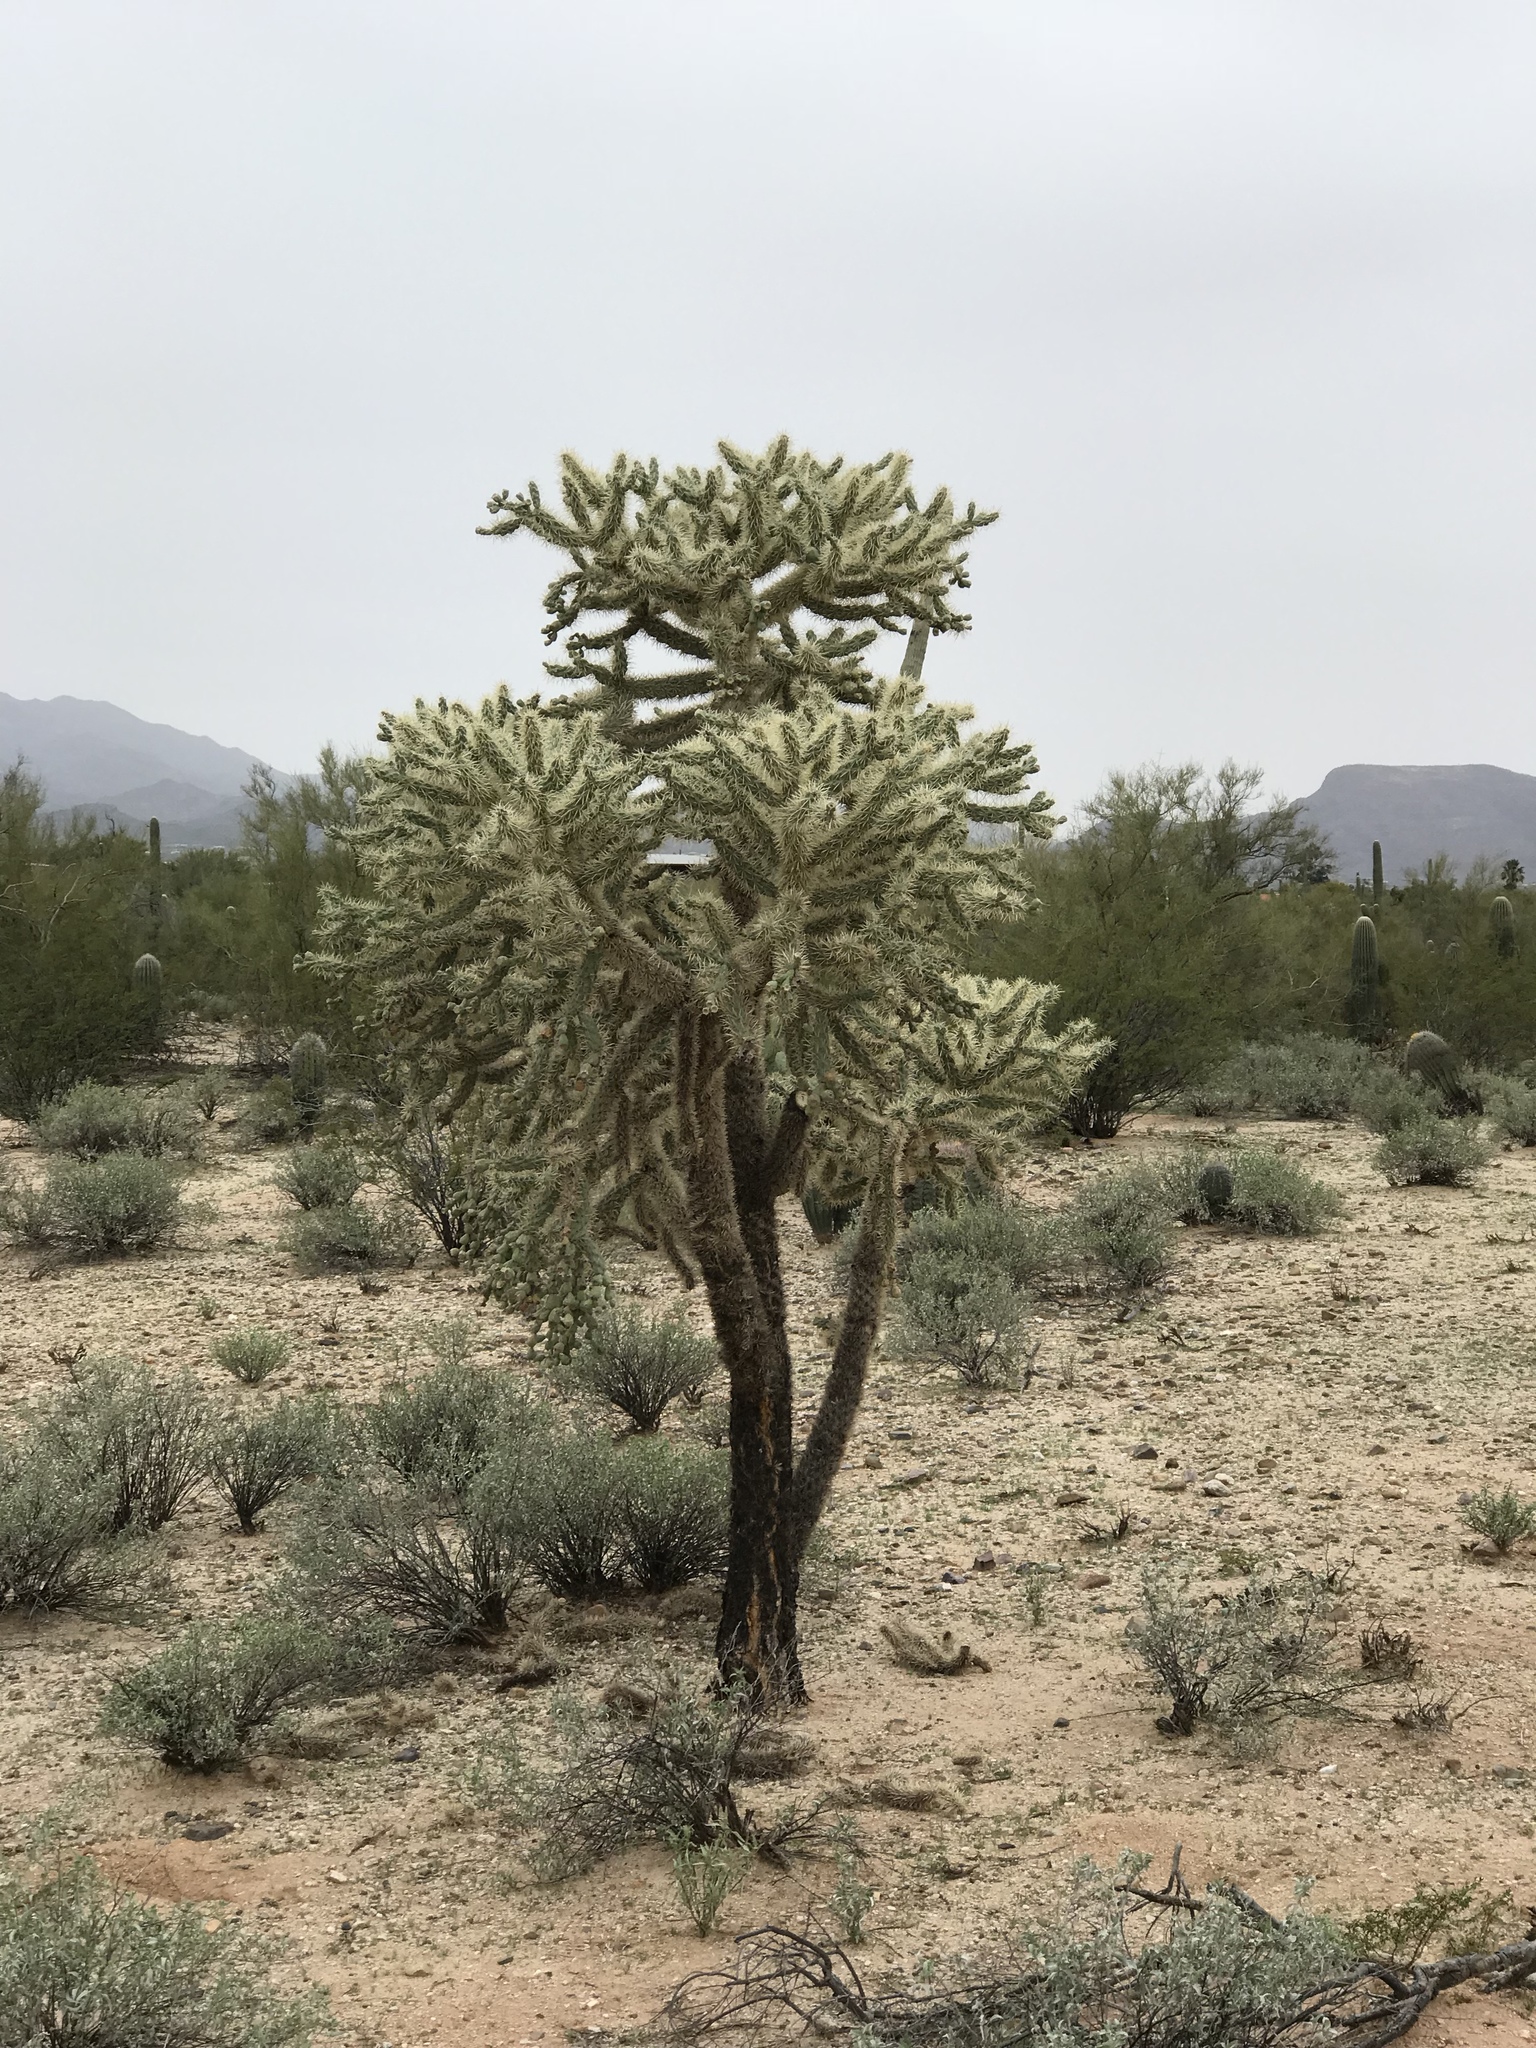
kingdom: Plantae
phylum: Tracheophyta
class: Magnoliopsida
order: Caryophyllales
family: Cactaceae
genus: Cylindropuntia
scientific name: Cylindropuntia fulgida
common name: Jumping cholla
